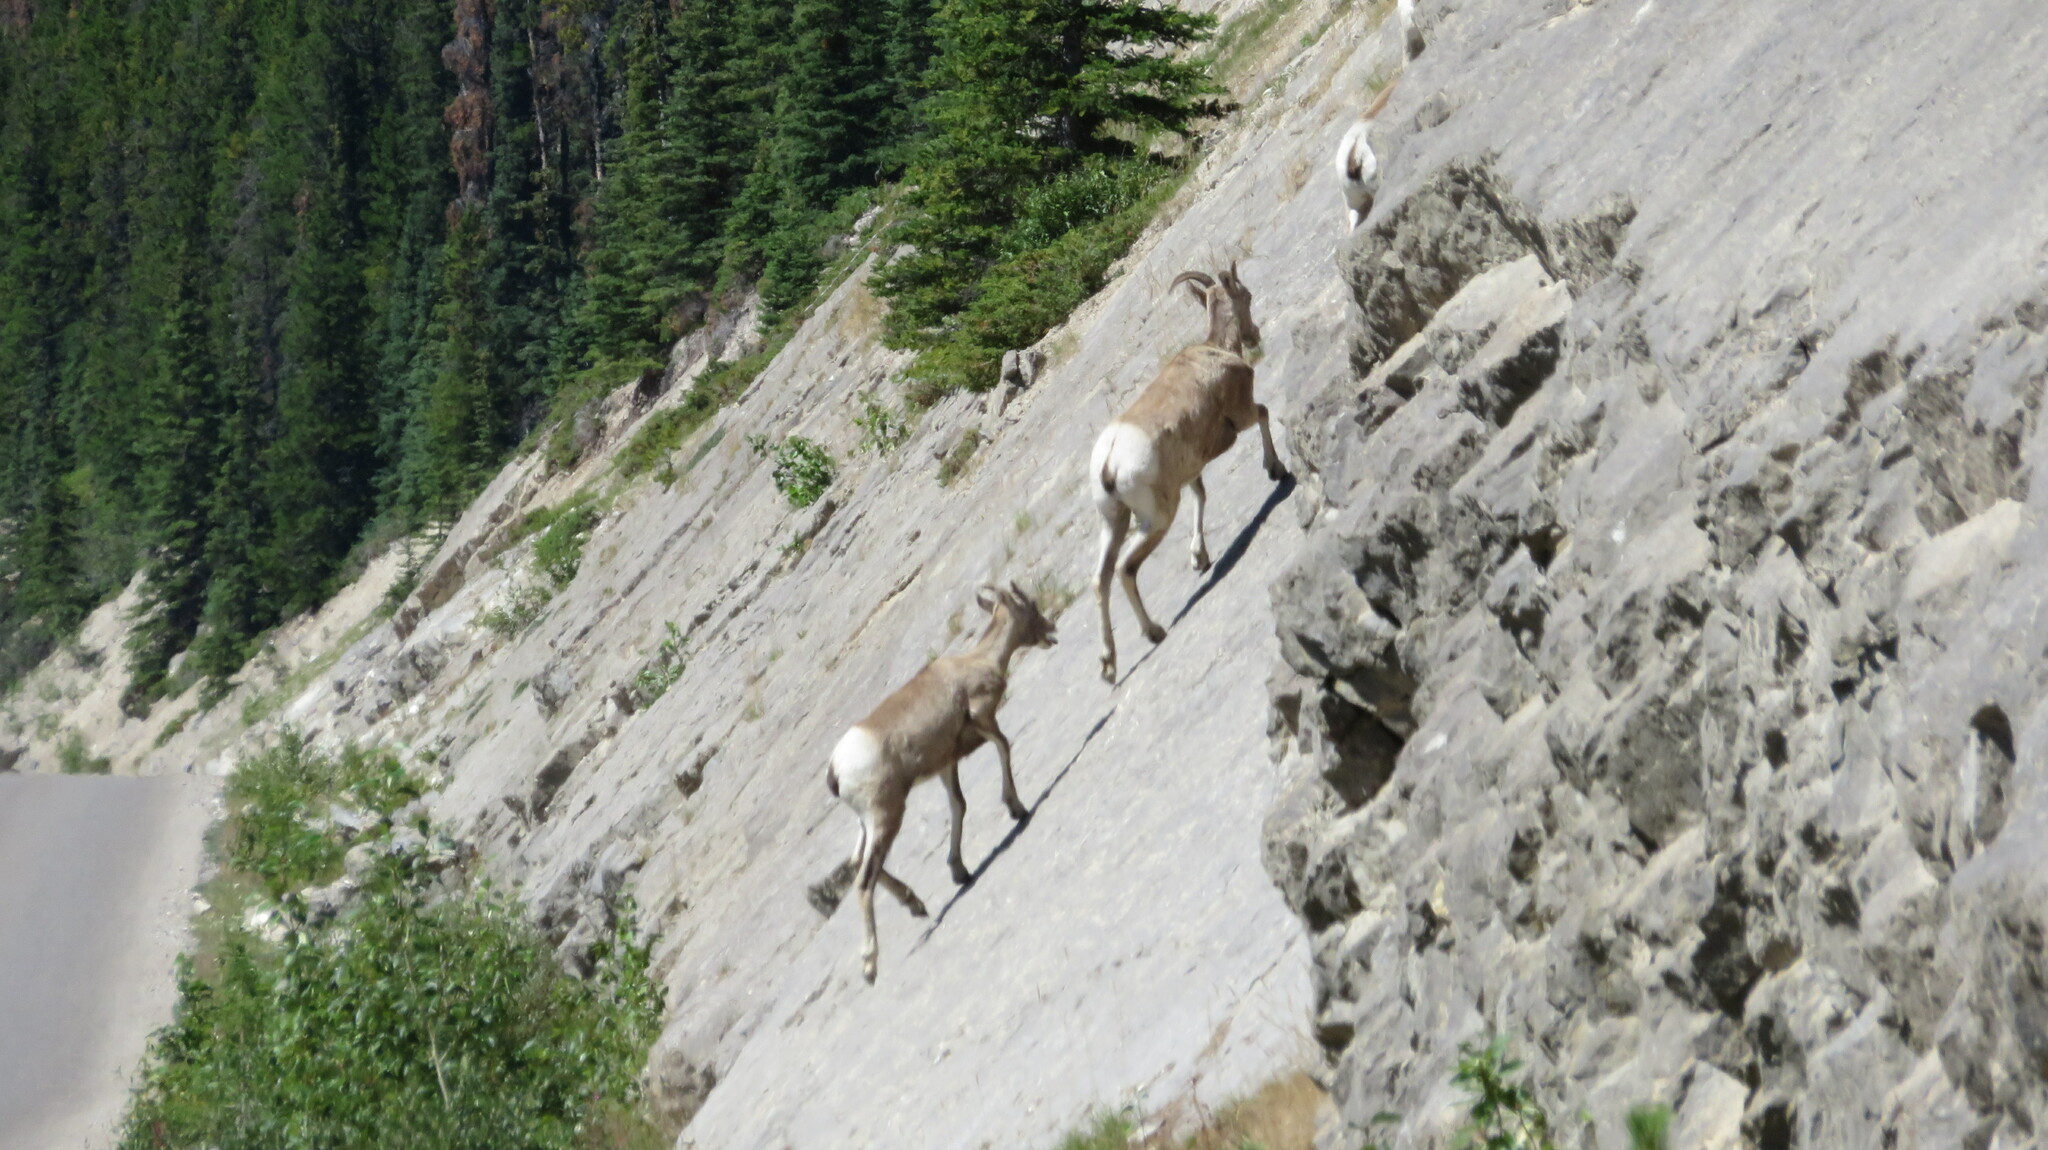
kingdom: Animalia
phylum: Chordata
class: Mammalia
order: Artiodactyla
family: Bovidae
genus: Ovis
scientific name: Ovis canadensis
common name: Bighorn sheep
